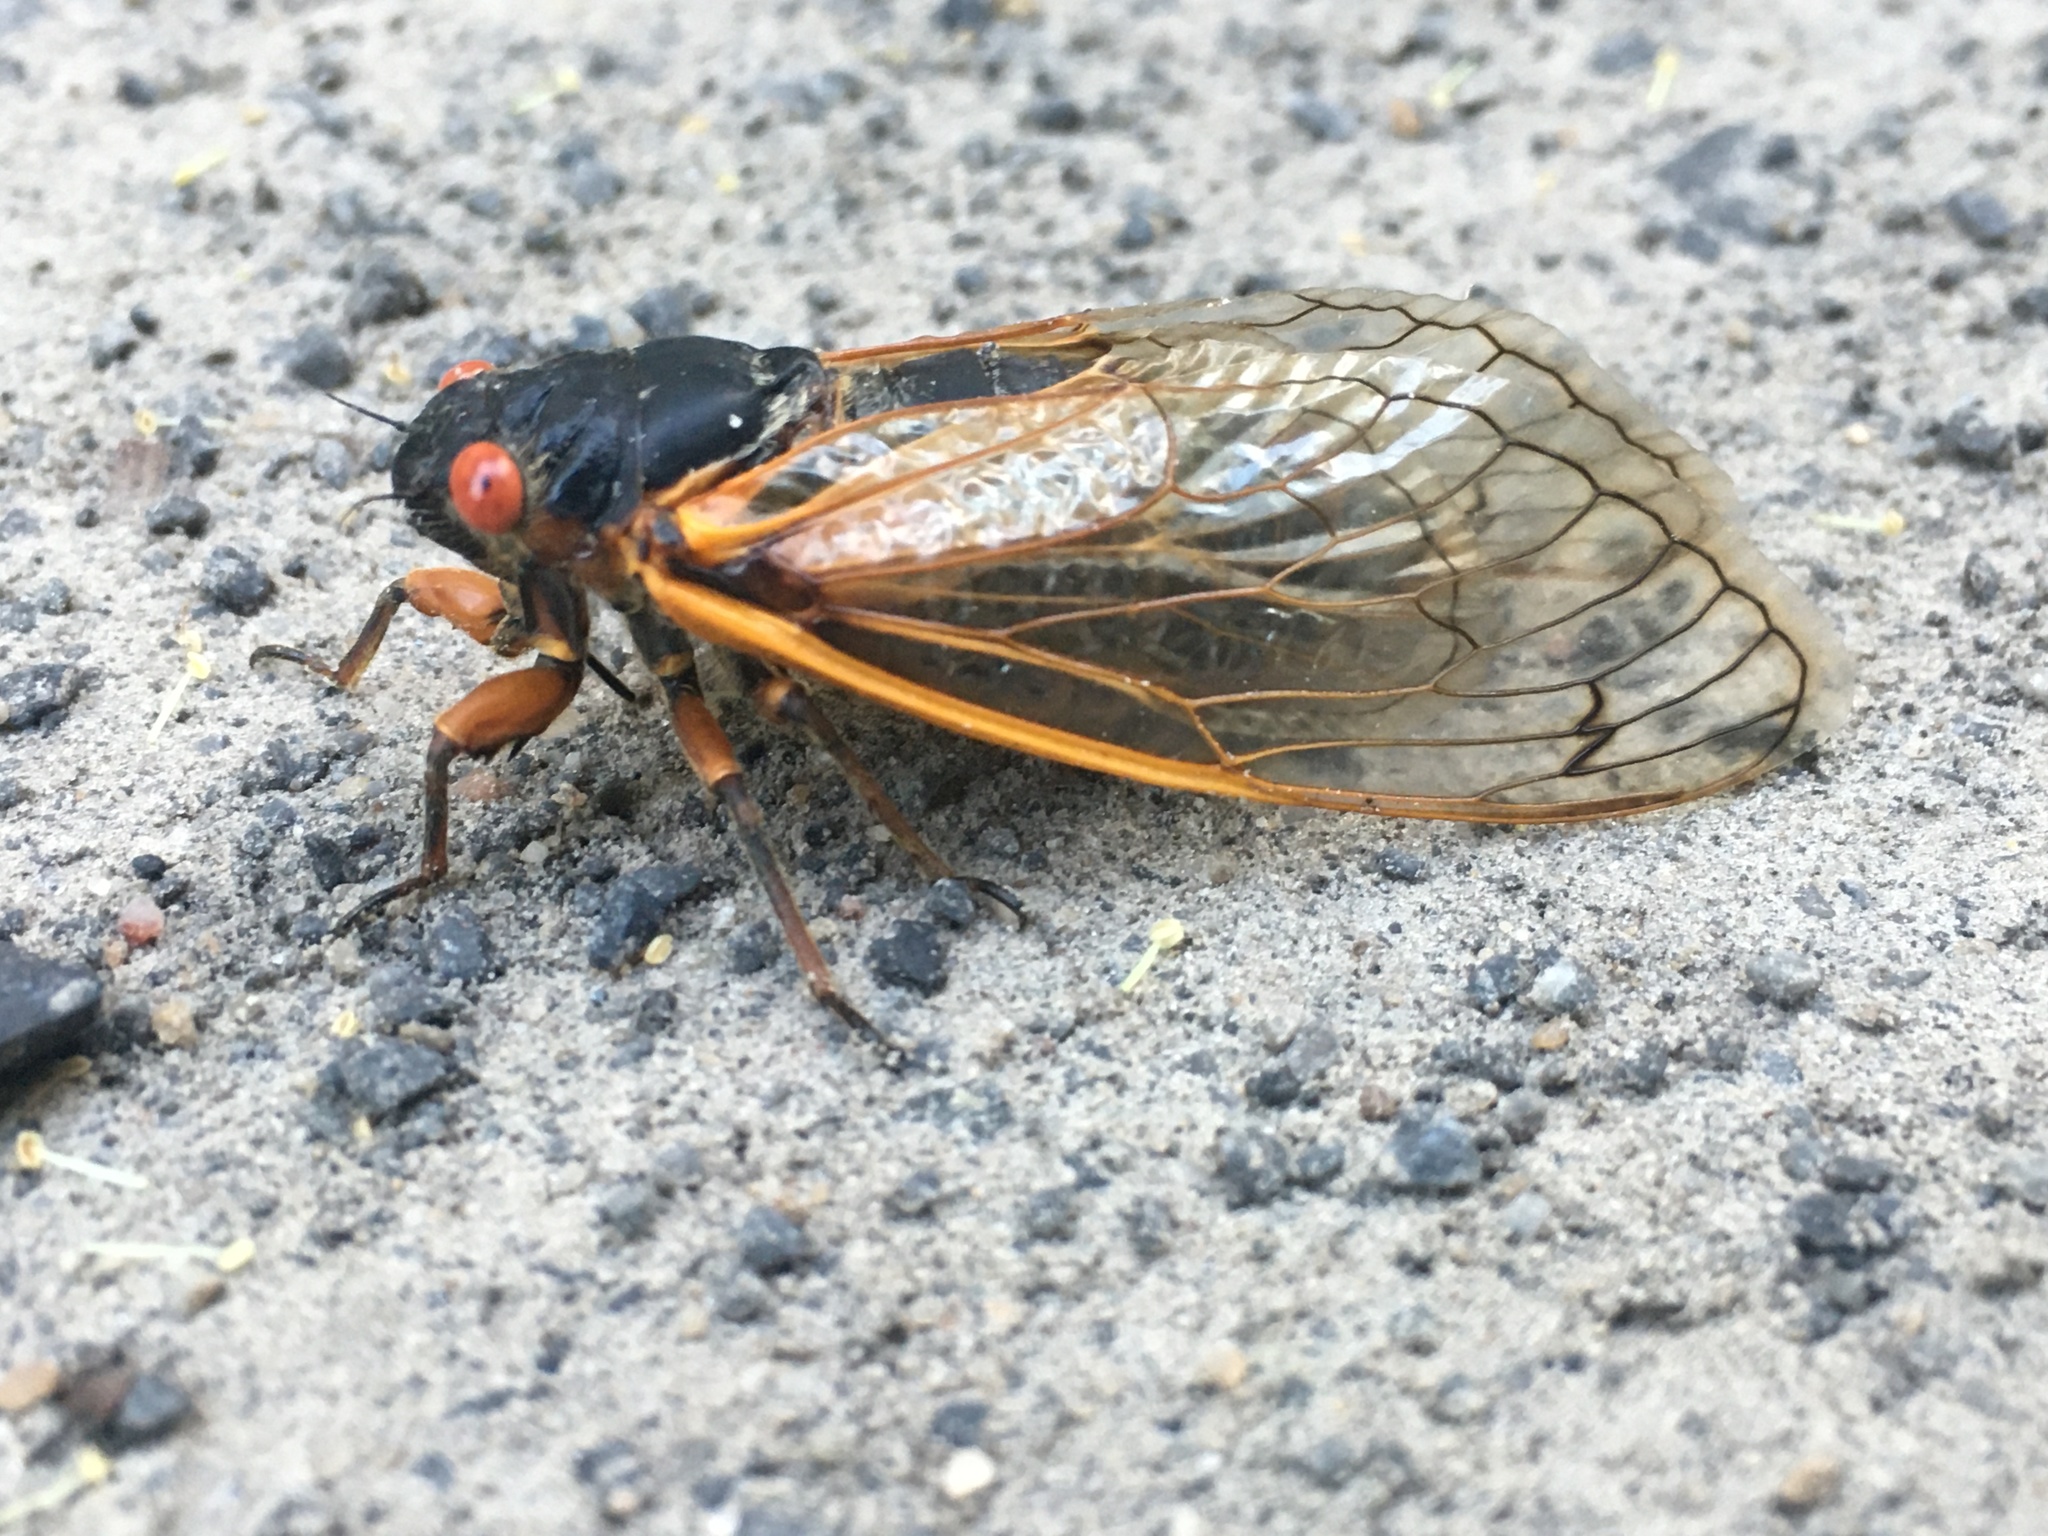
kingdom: Animalia
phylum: Arthropoda
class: Insecta
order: Hemiptera
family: Cicadidae
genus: Magicicada
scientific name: Magicicada septendecim
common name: Periodical cicada
